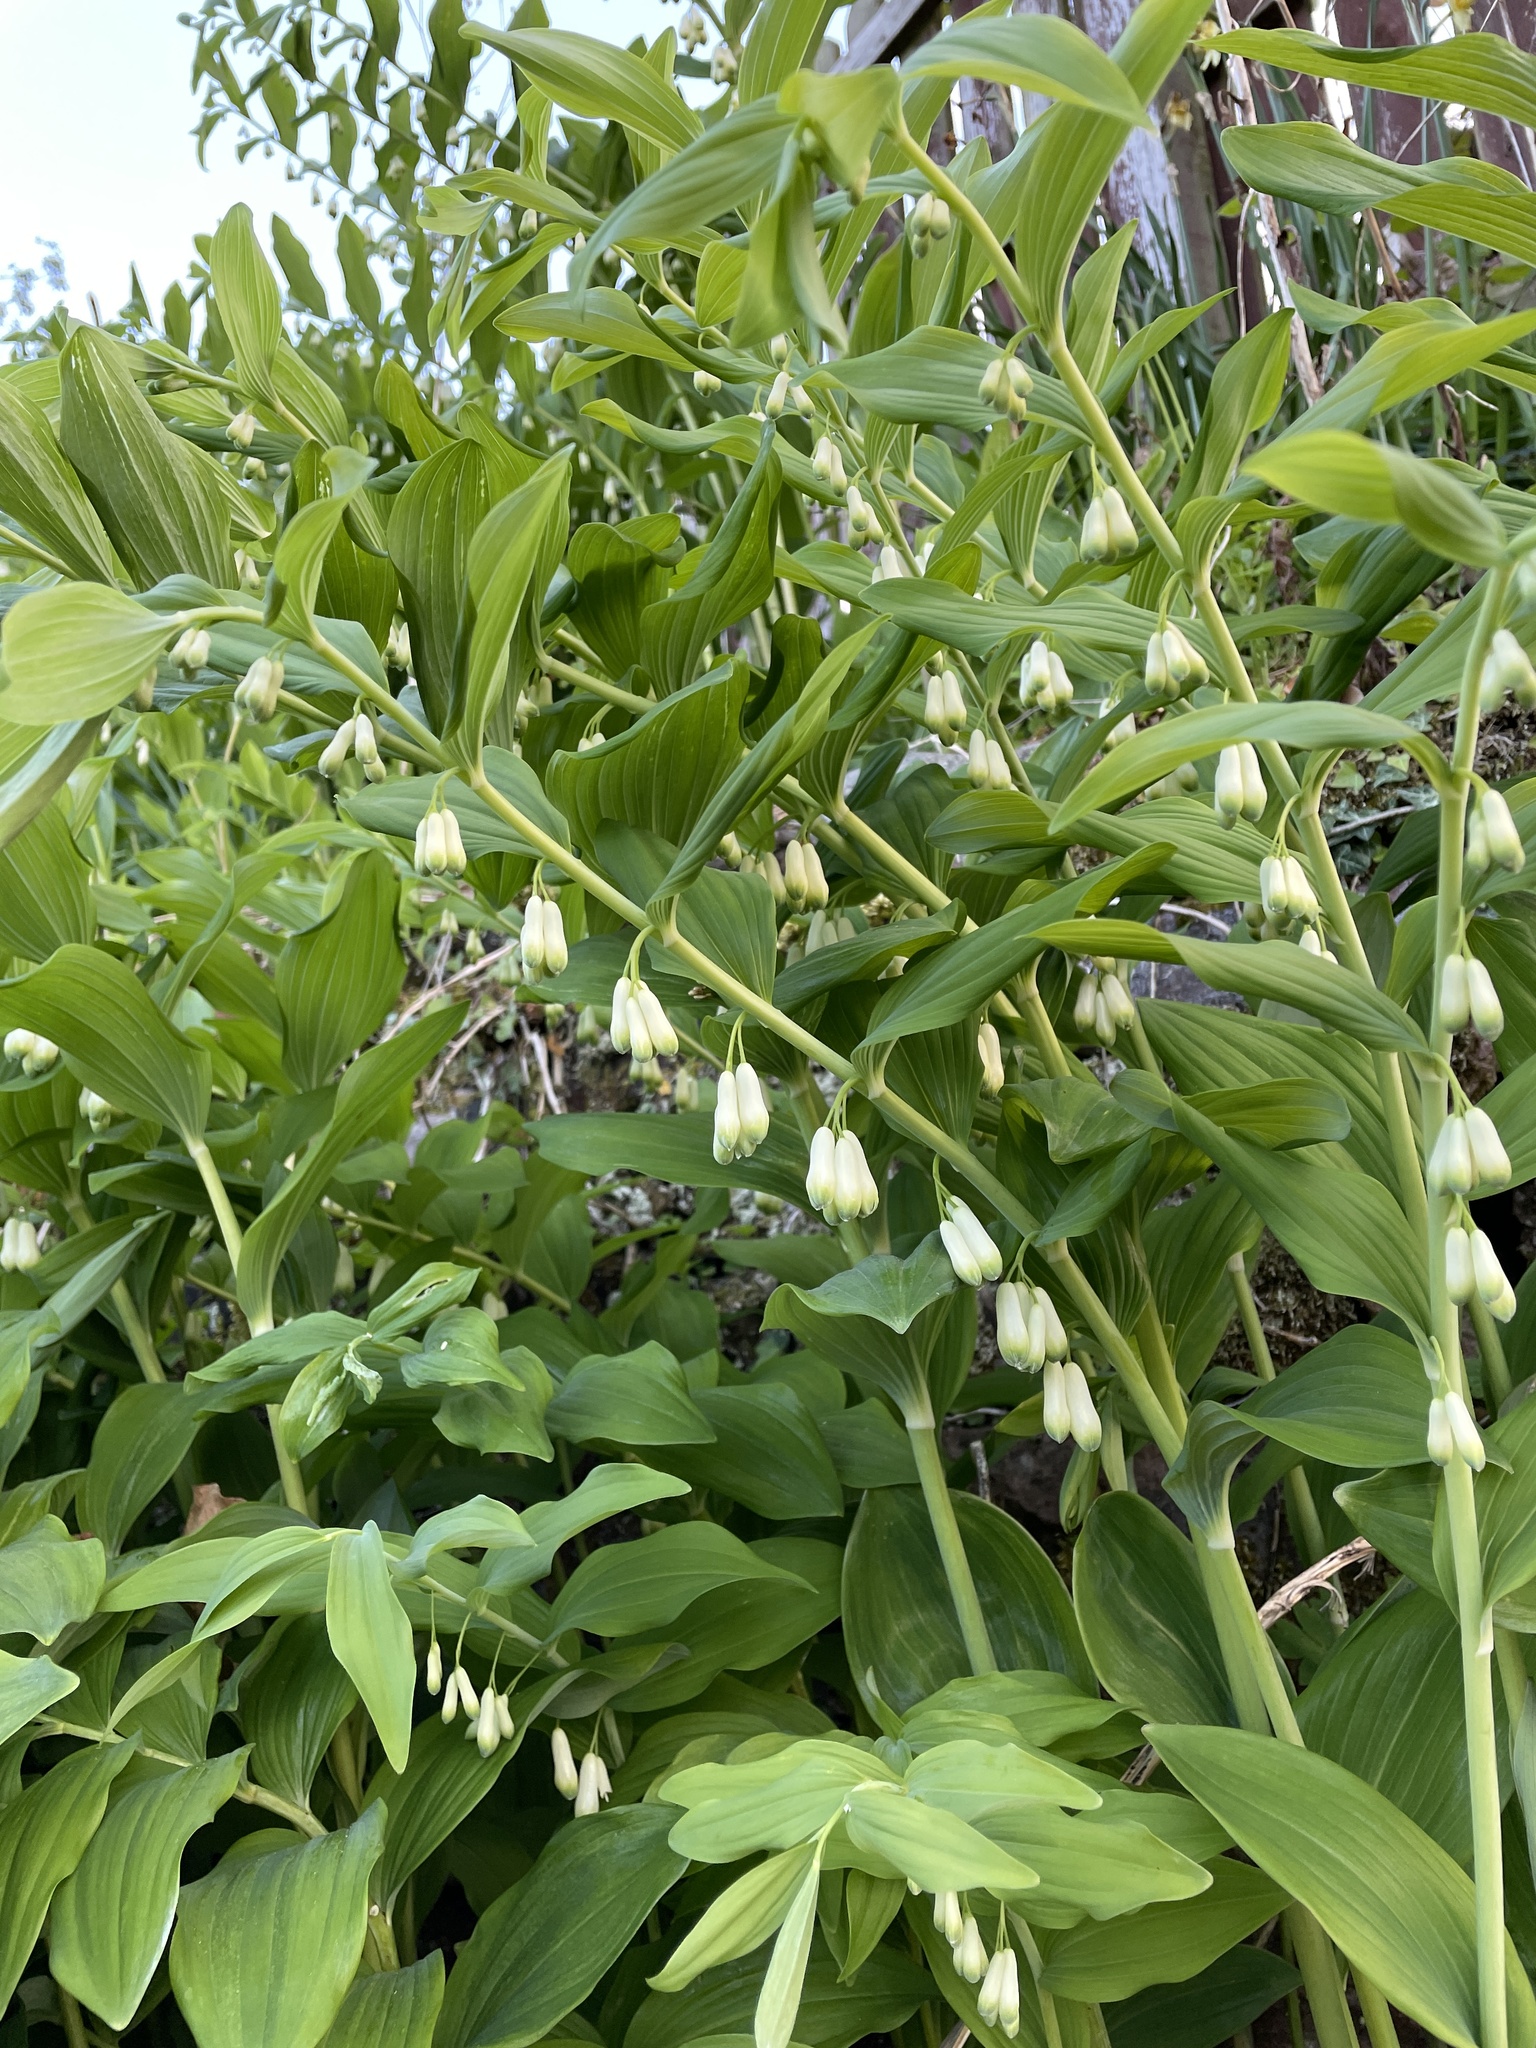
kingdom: Plantae
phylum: Tracheophyta
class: Liliopsida
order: Asparagales
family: Asparagaceae
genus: Polygonatum
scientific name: Polygonatum multiflorum
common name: Solomon's-seal
